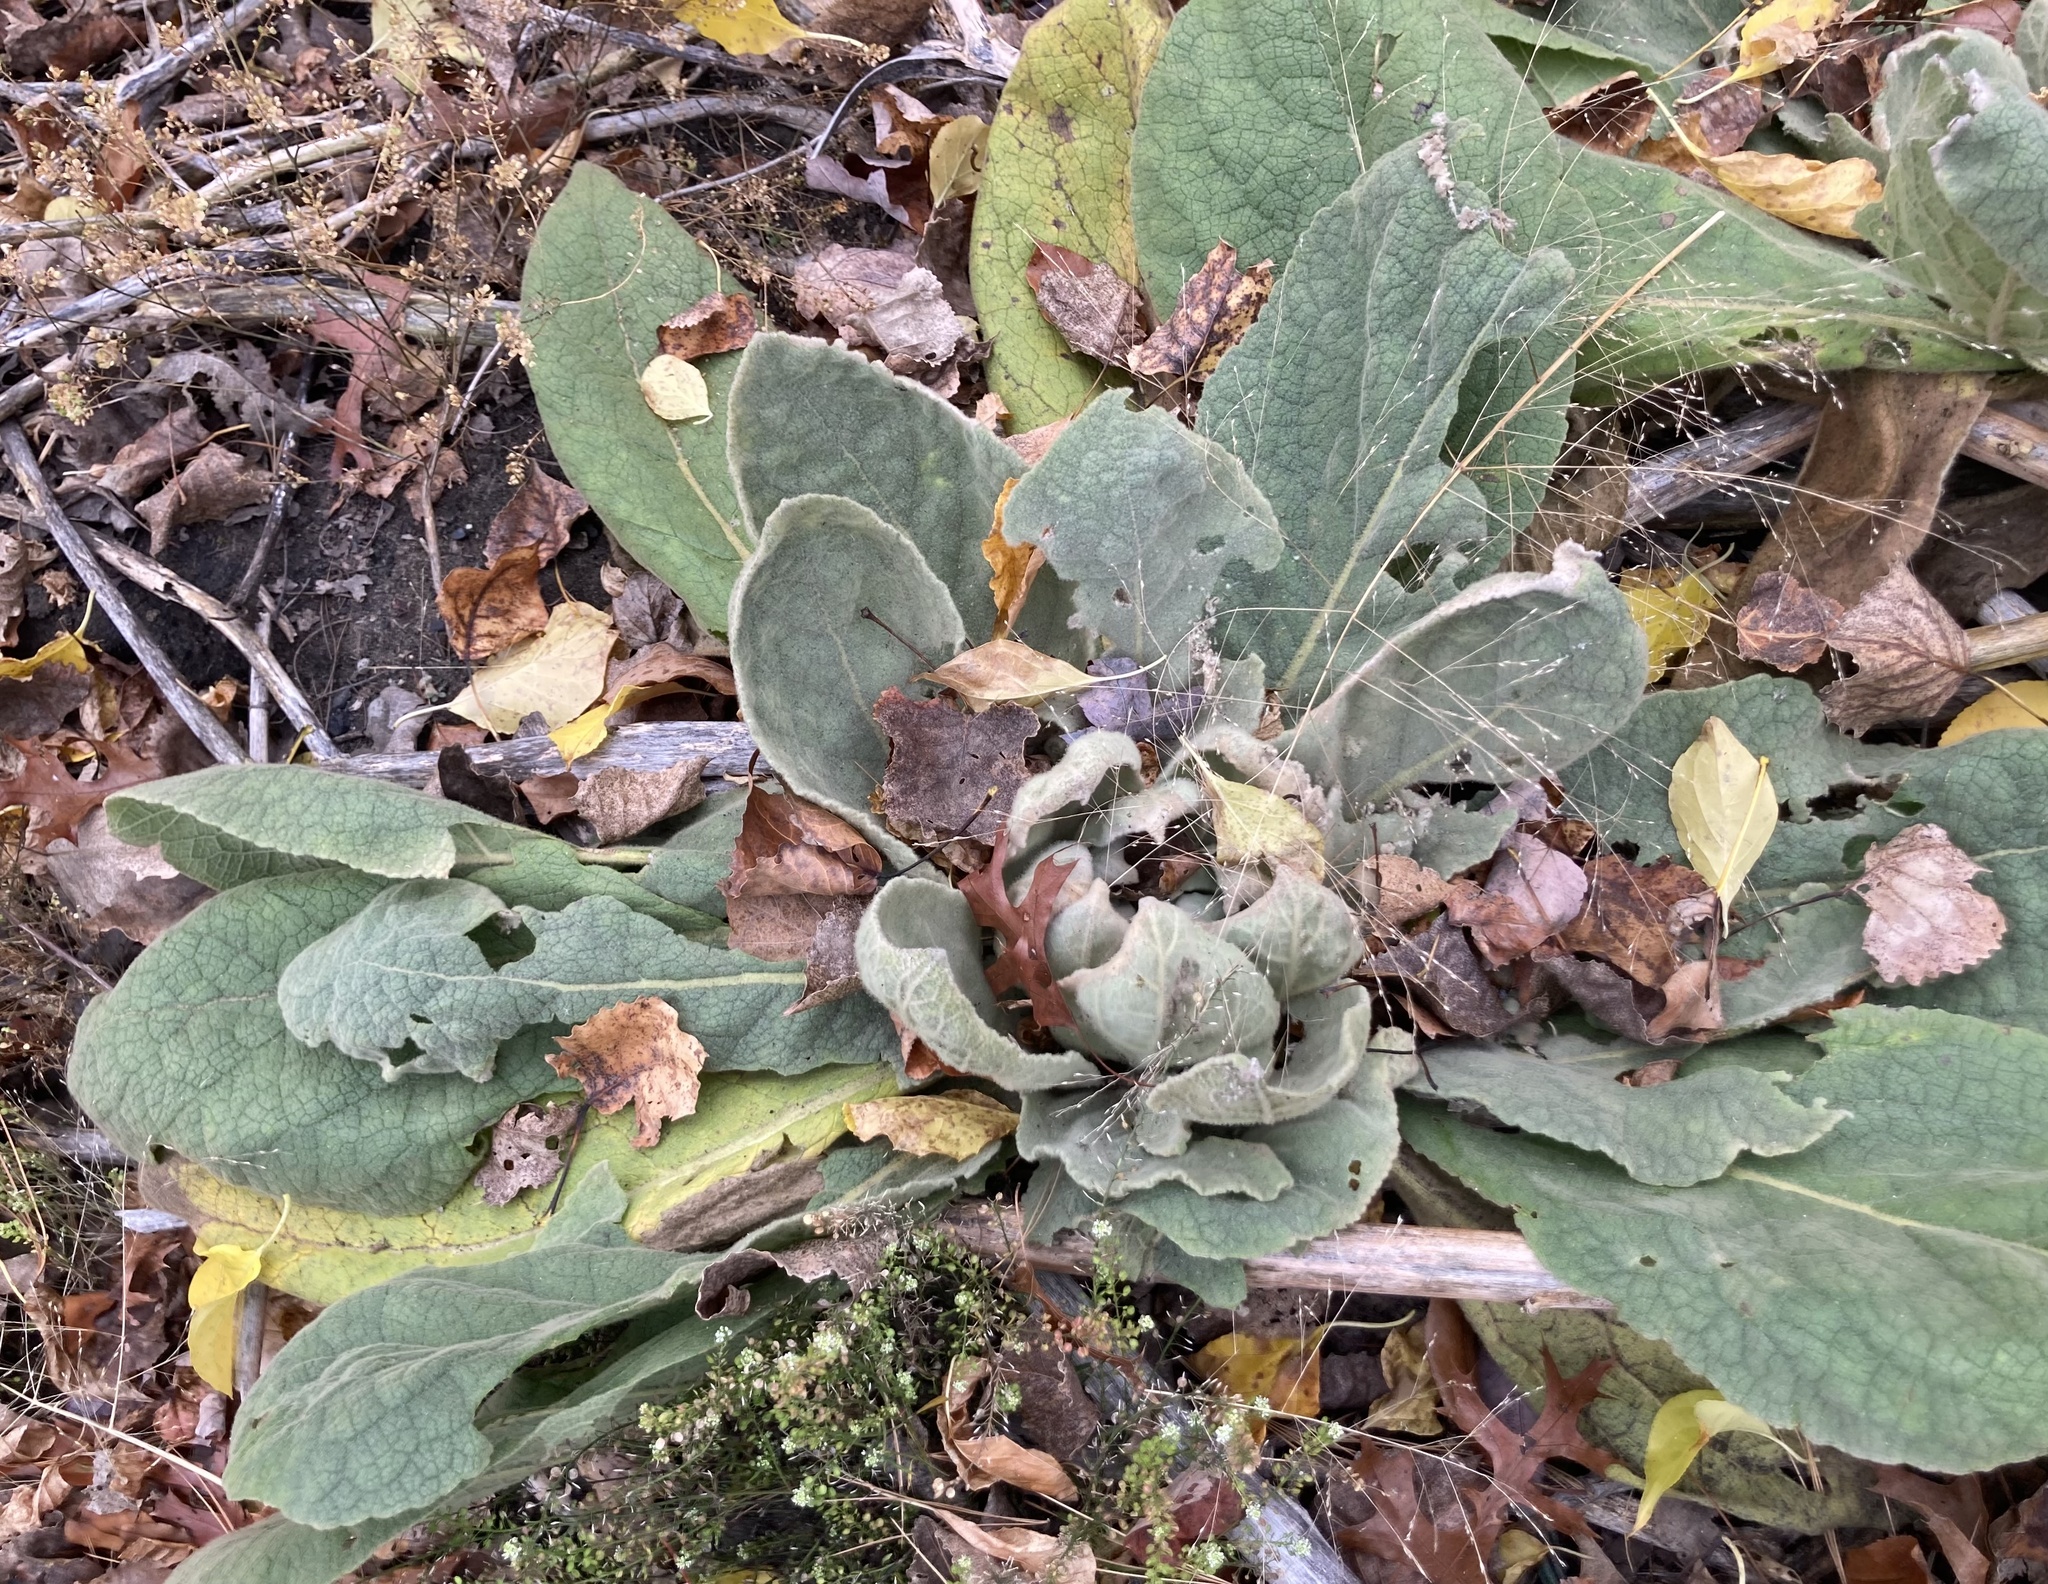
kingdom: Plantae
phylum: Tracheophyta
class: Magnoliopsida
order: Lamiales
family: Scrophulariaceae
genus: Verbascum
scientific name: Verbascum thapsus
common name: Common mullein
